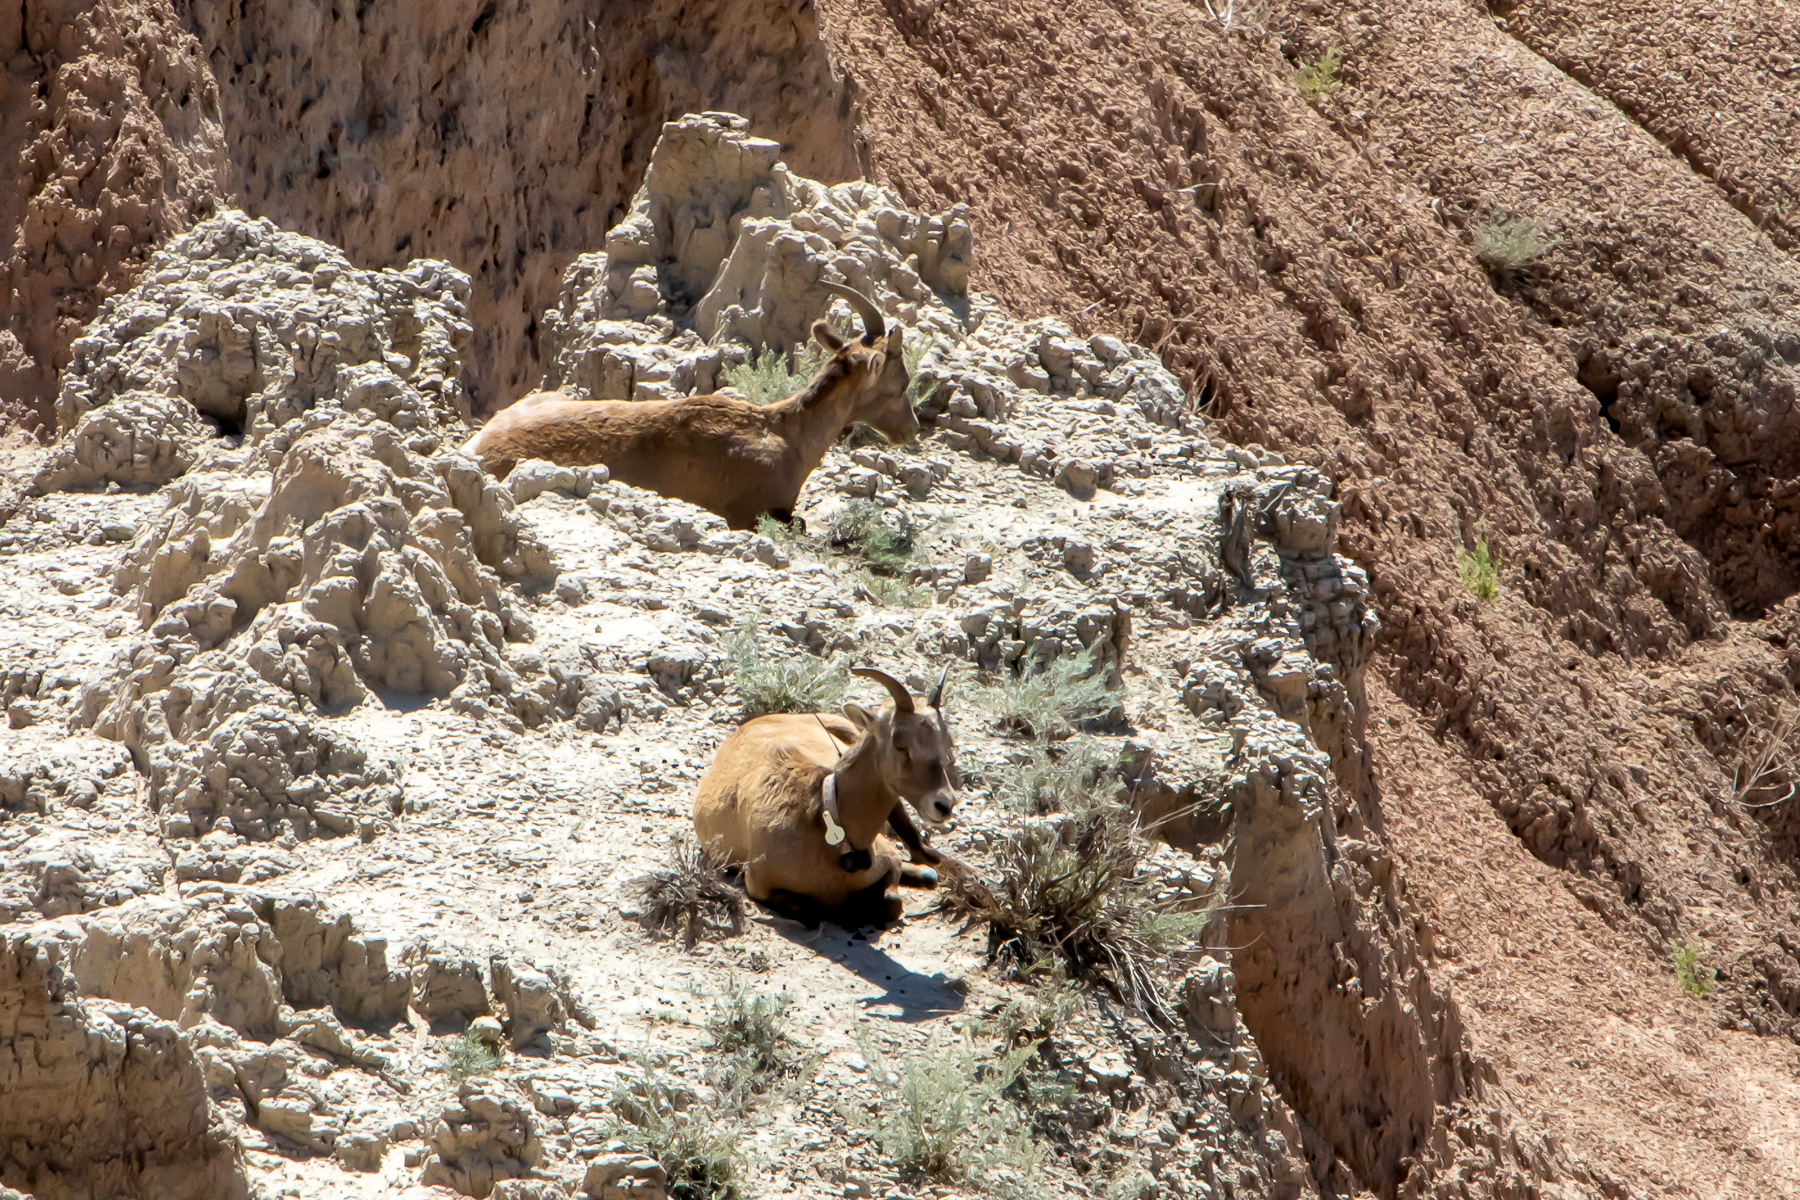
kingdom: Animalia
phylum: Chordata
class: Mammalia
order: Artiodactyla
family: Bovidae
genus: Ovis
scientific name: Ovis canadensis
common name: Bighorn sheep
